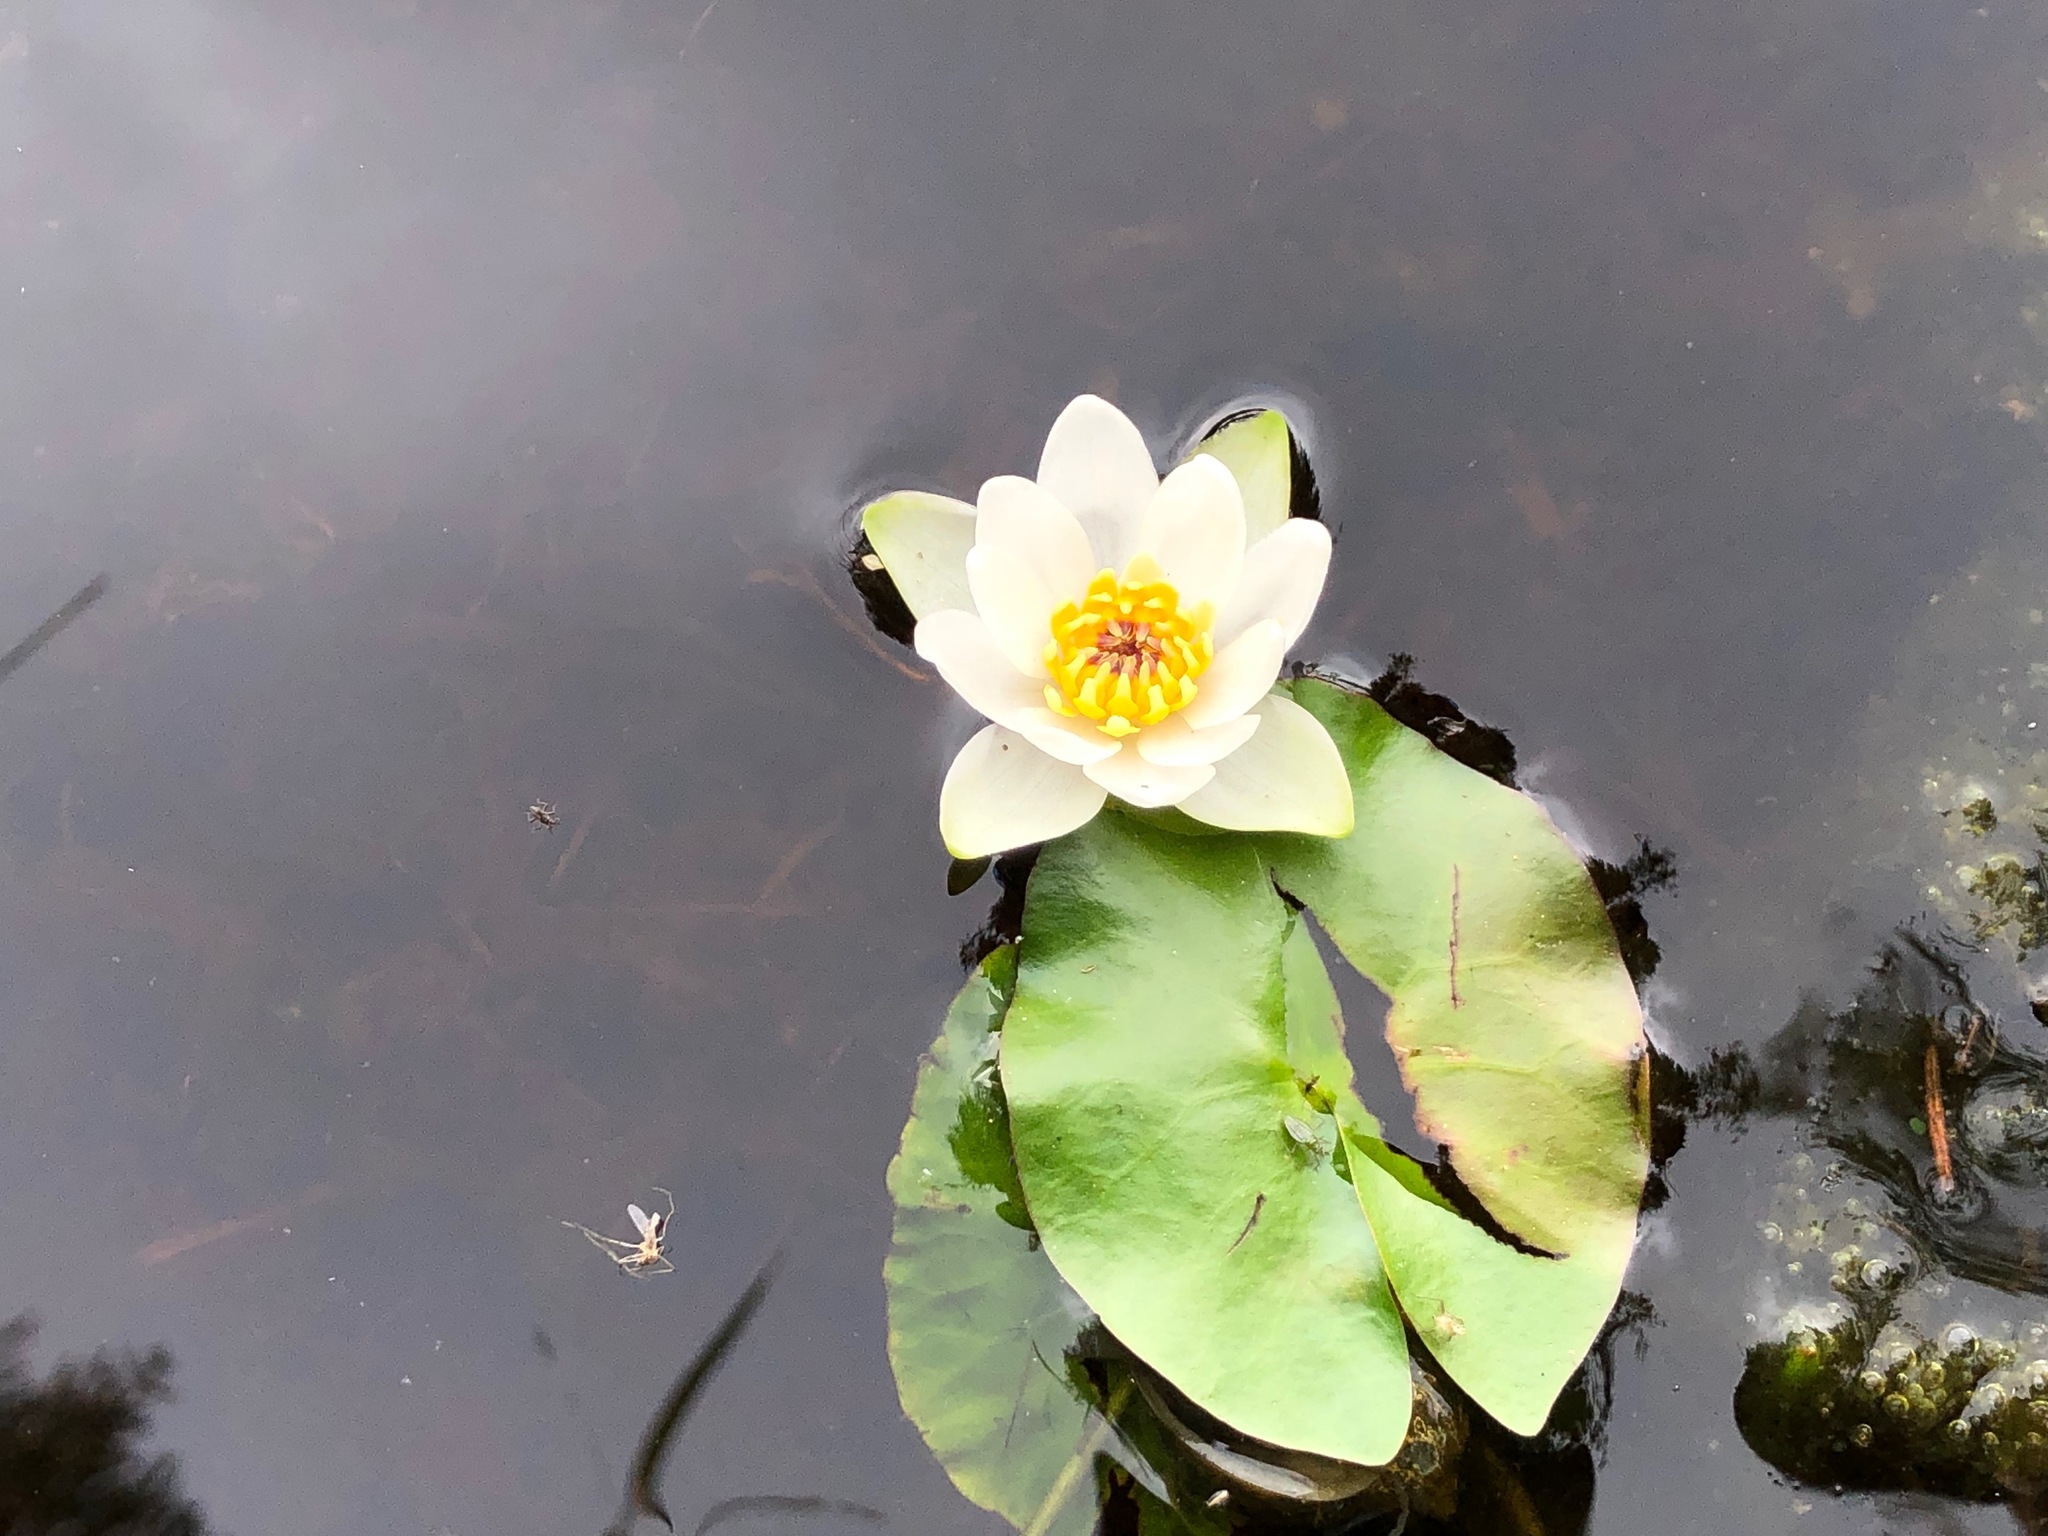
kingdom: Plantae
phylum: Tracheophyta
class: Magnoliopsida
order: Nymphaeales
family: Nymphaeaceae
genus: Nymphaea
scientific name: Nymphaea tetragona
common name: Pygmy water-lily
